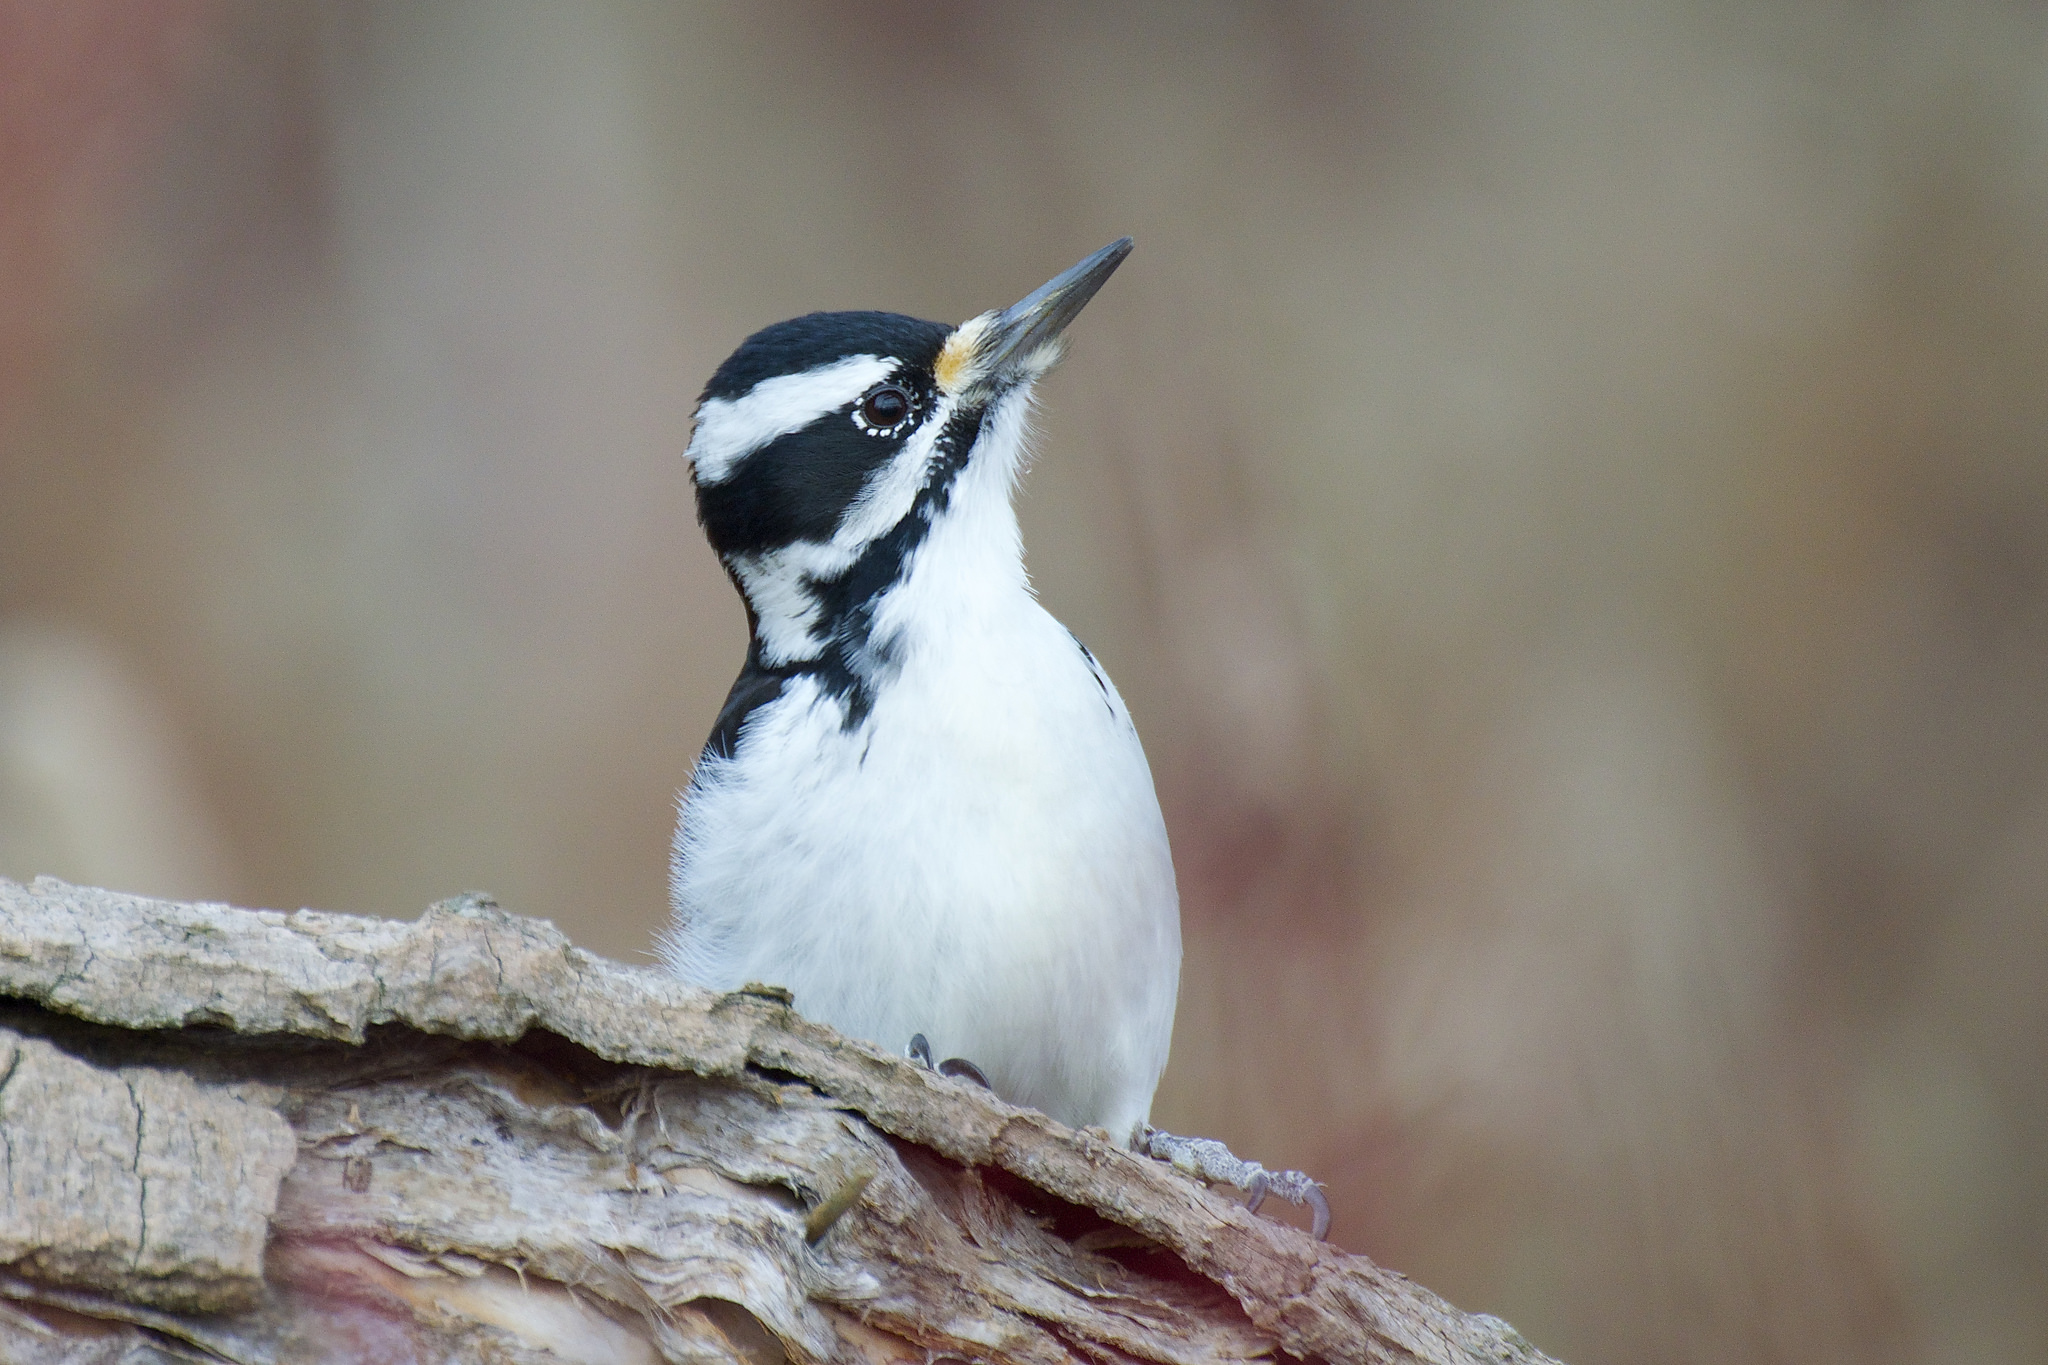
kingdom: Animalia
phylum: Chordata
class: Aves
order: Piciformes
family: Picidae
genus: Leuconotopicus
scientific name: Leuconotopicus villosus
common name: Hairy woodpecker
